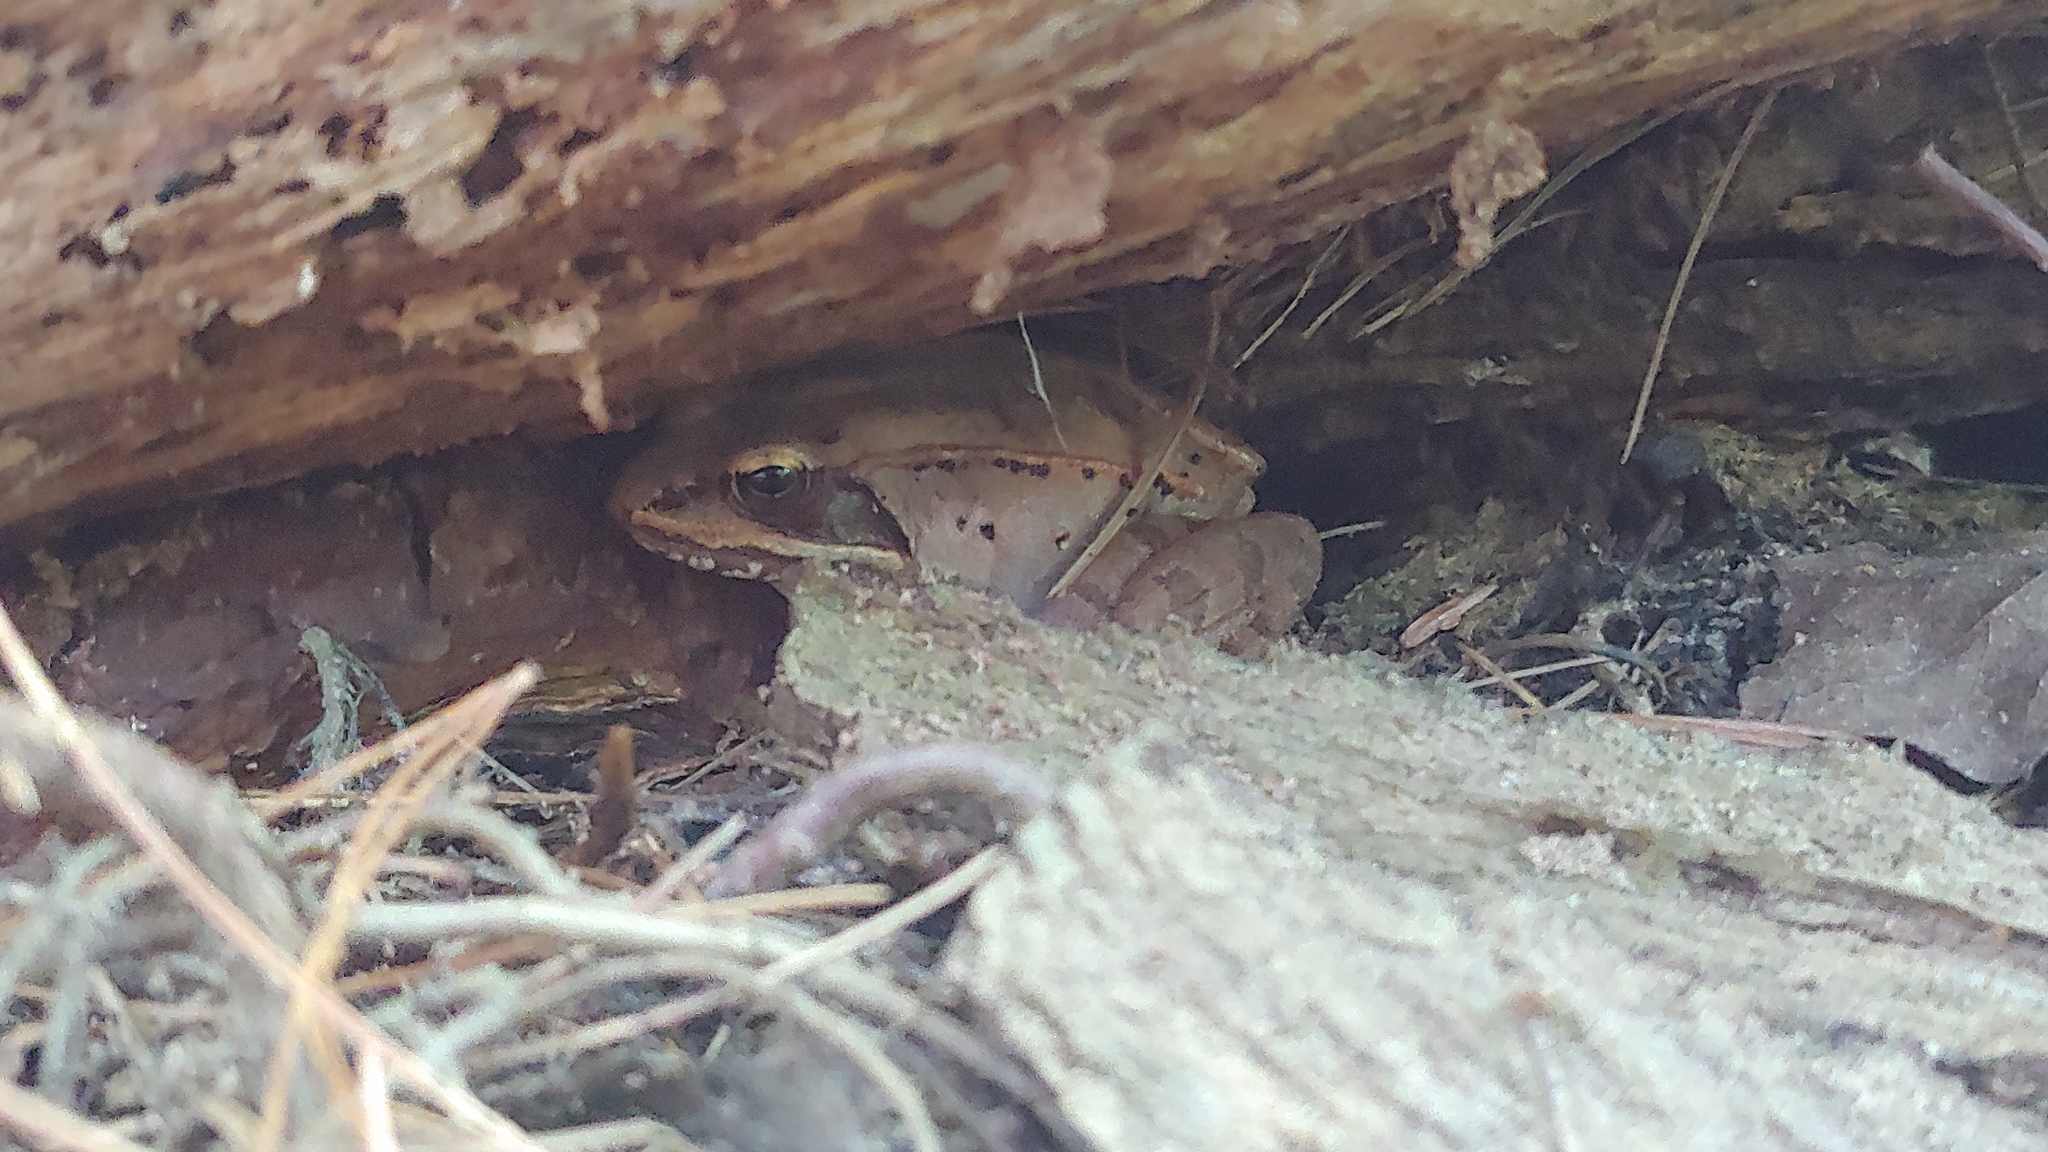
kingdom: Animalia
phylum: Chordata
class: Amphibia
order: Anura
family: Ranidae
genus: Lithobates
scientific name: Lithobates sylvaticus
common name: Wood frog
